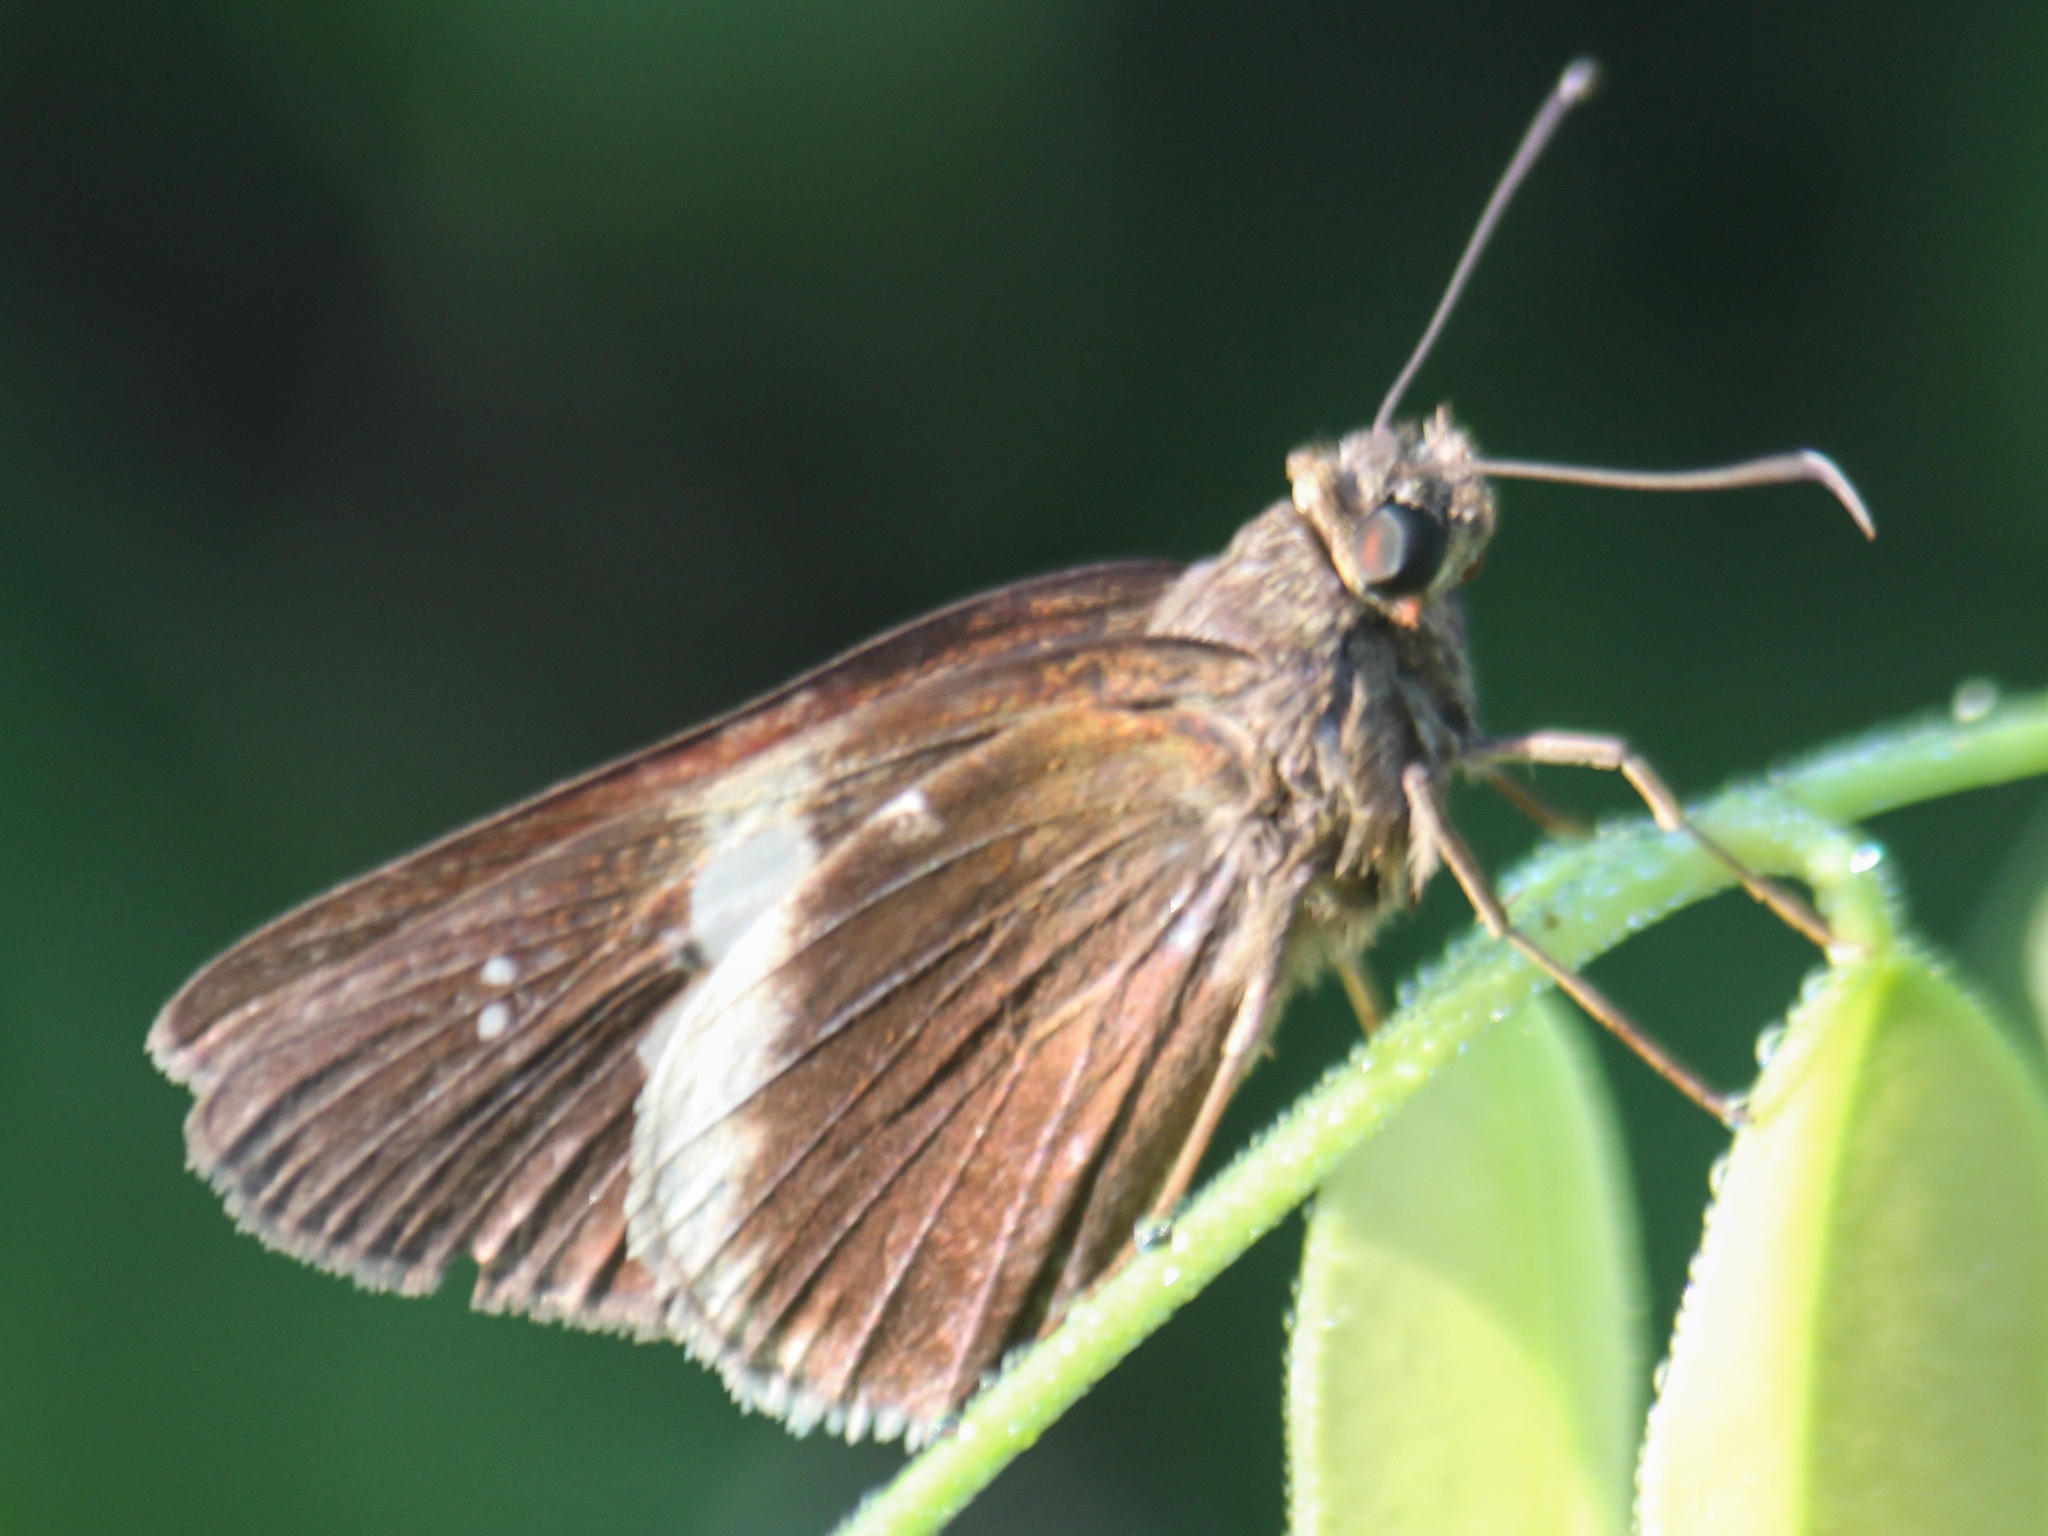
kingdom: Animalia
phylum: Arthropoda
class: Insecta
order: Lepidoptera
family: Hesperiidae
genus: Lotongus
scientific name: Lotongus calathus
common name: White-tipped palmer
